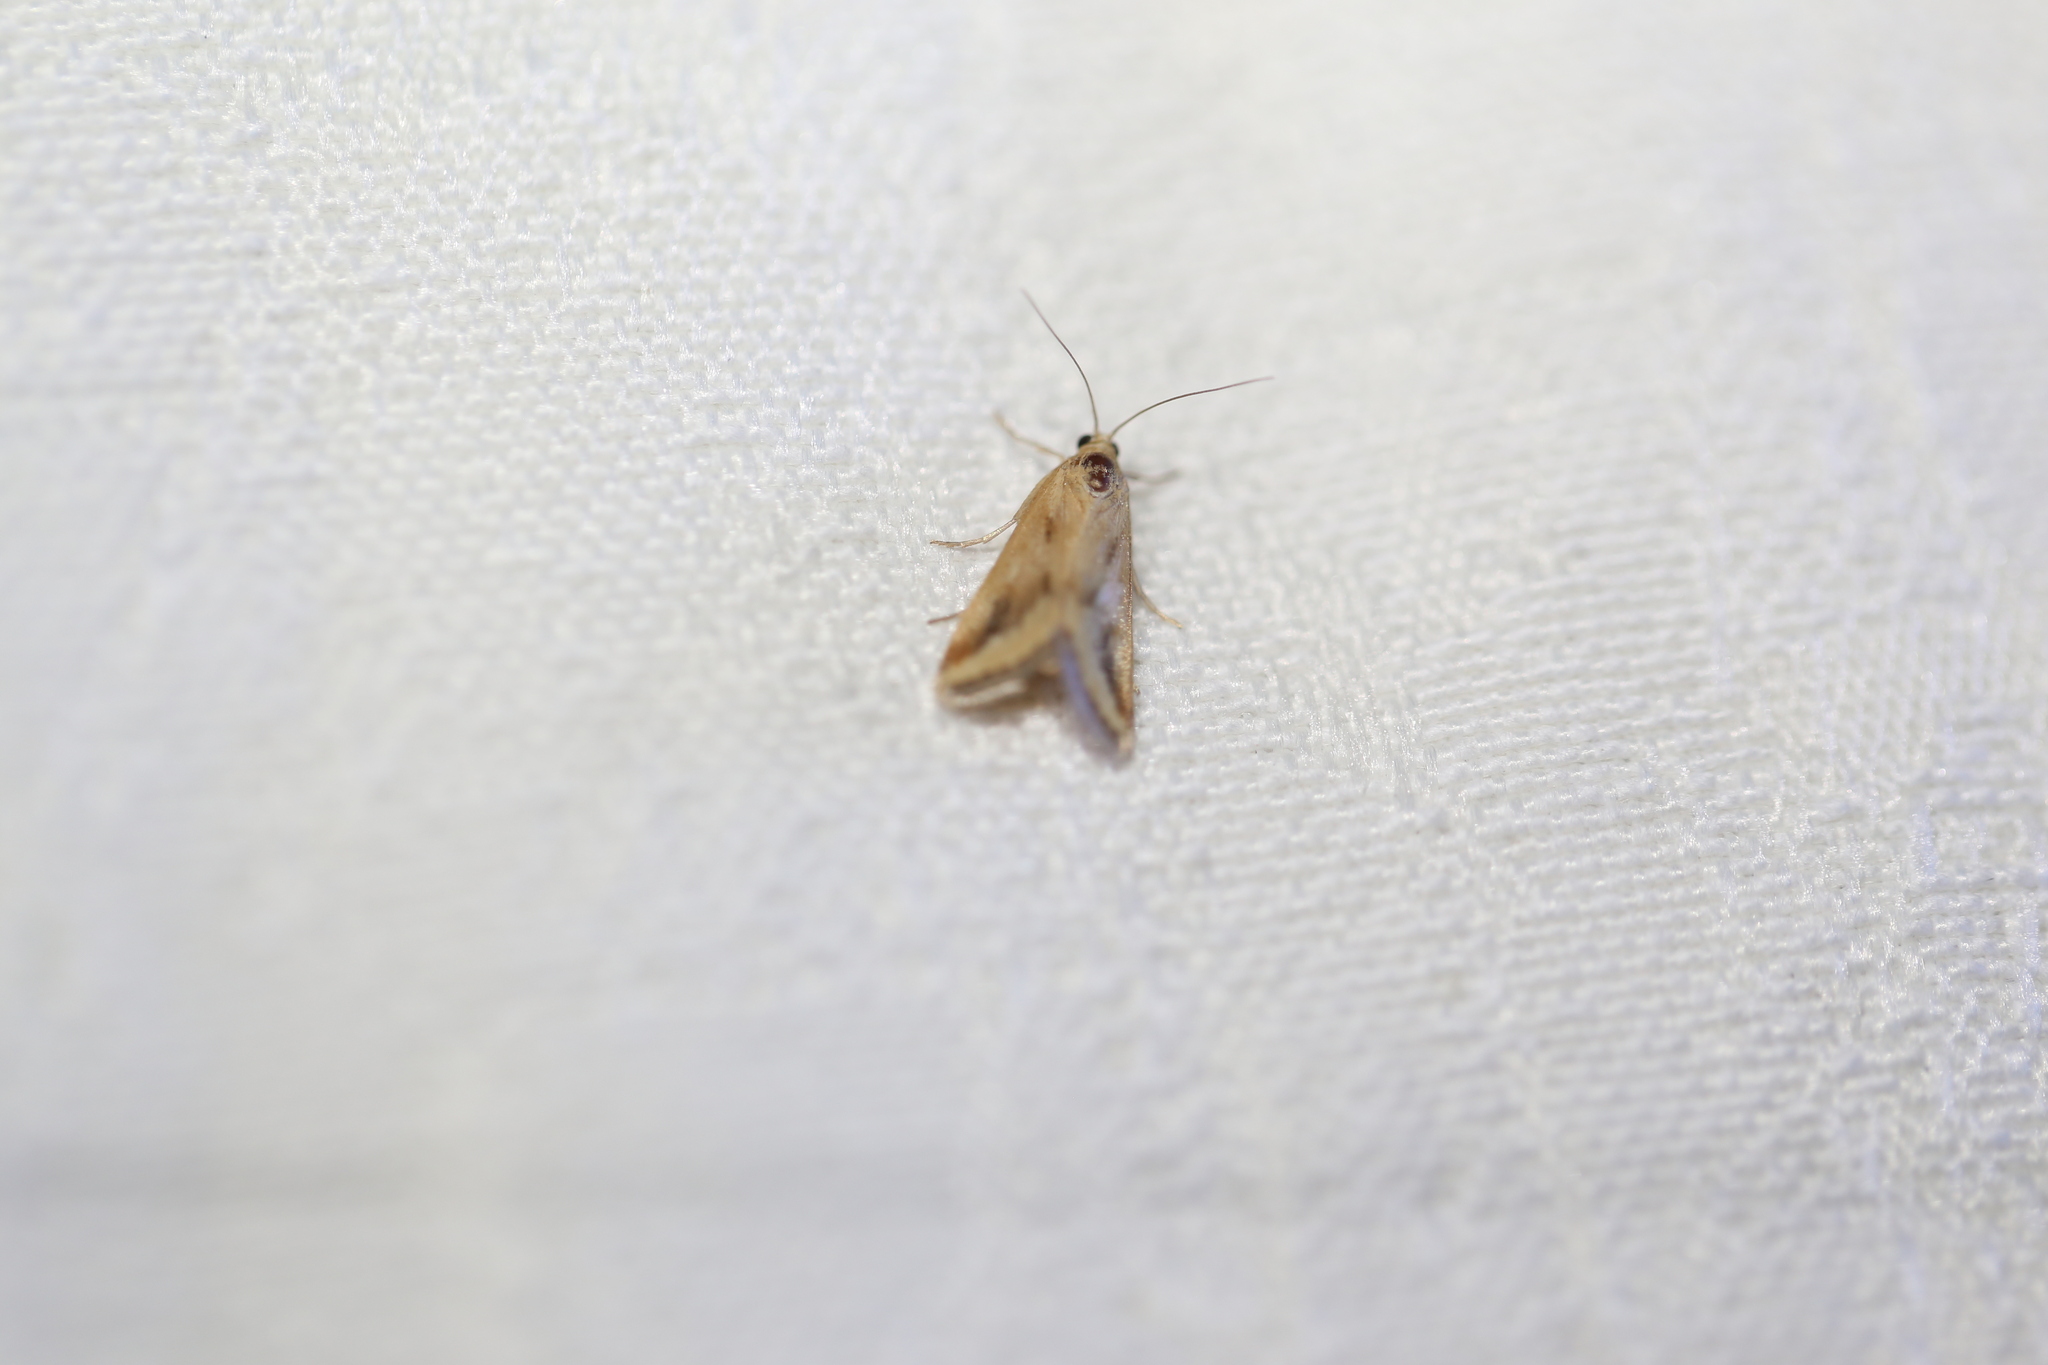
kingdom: Animalia
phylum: Arthropoda
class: Insecta
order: Lepidoptera
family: Crambidae
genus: Achyra
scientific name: Achyra massalis
